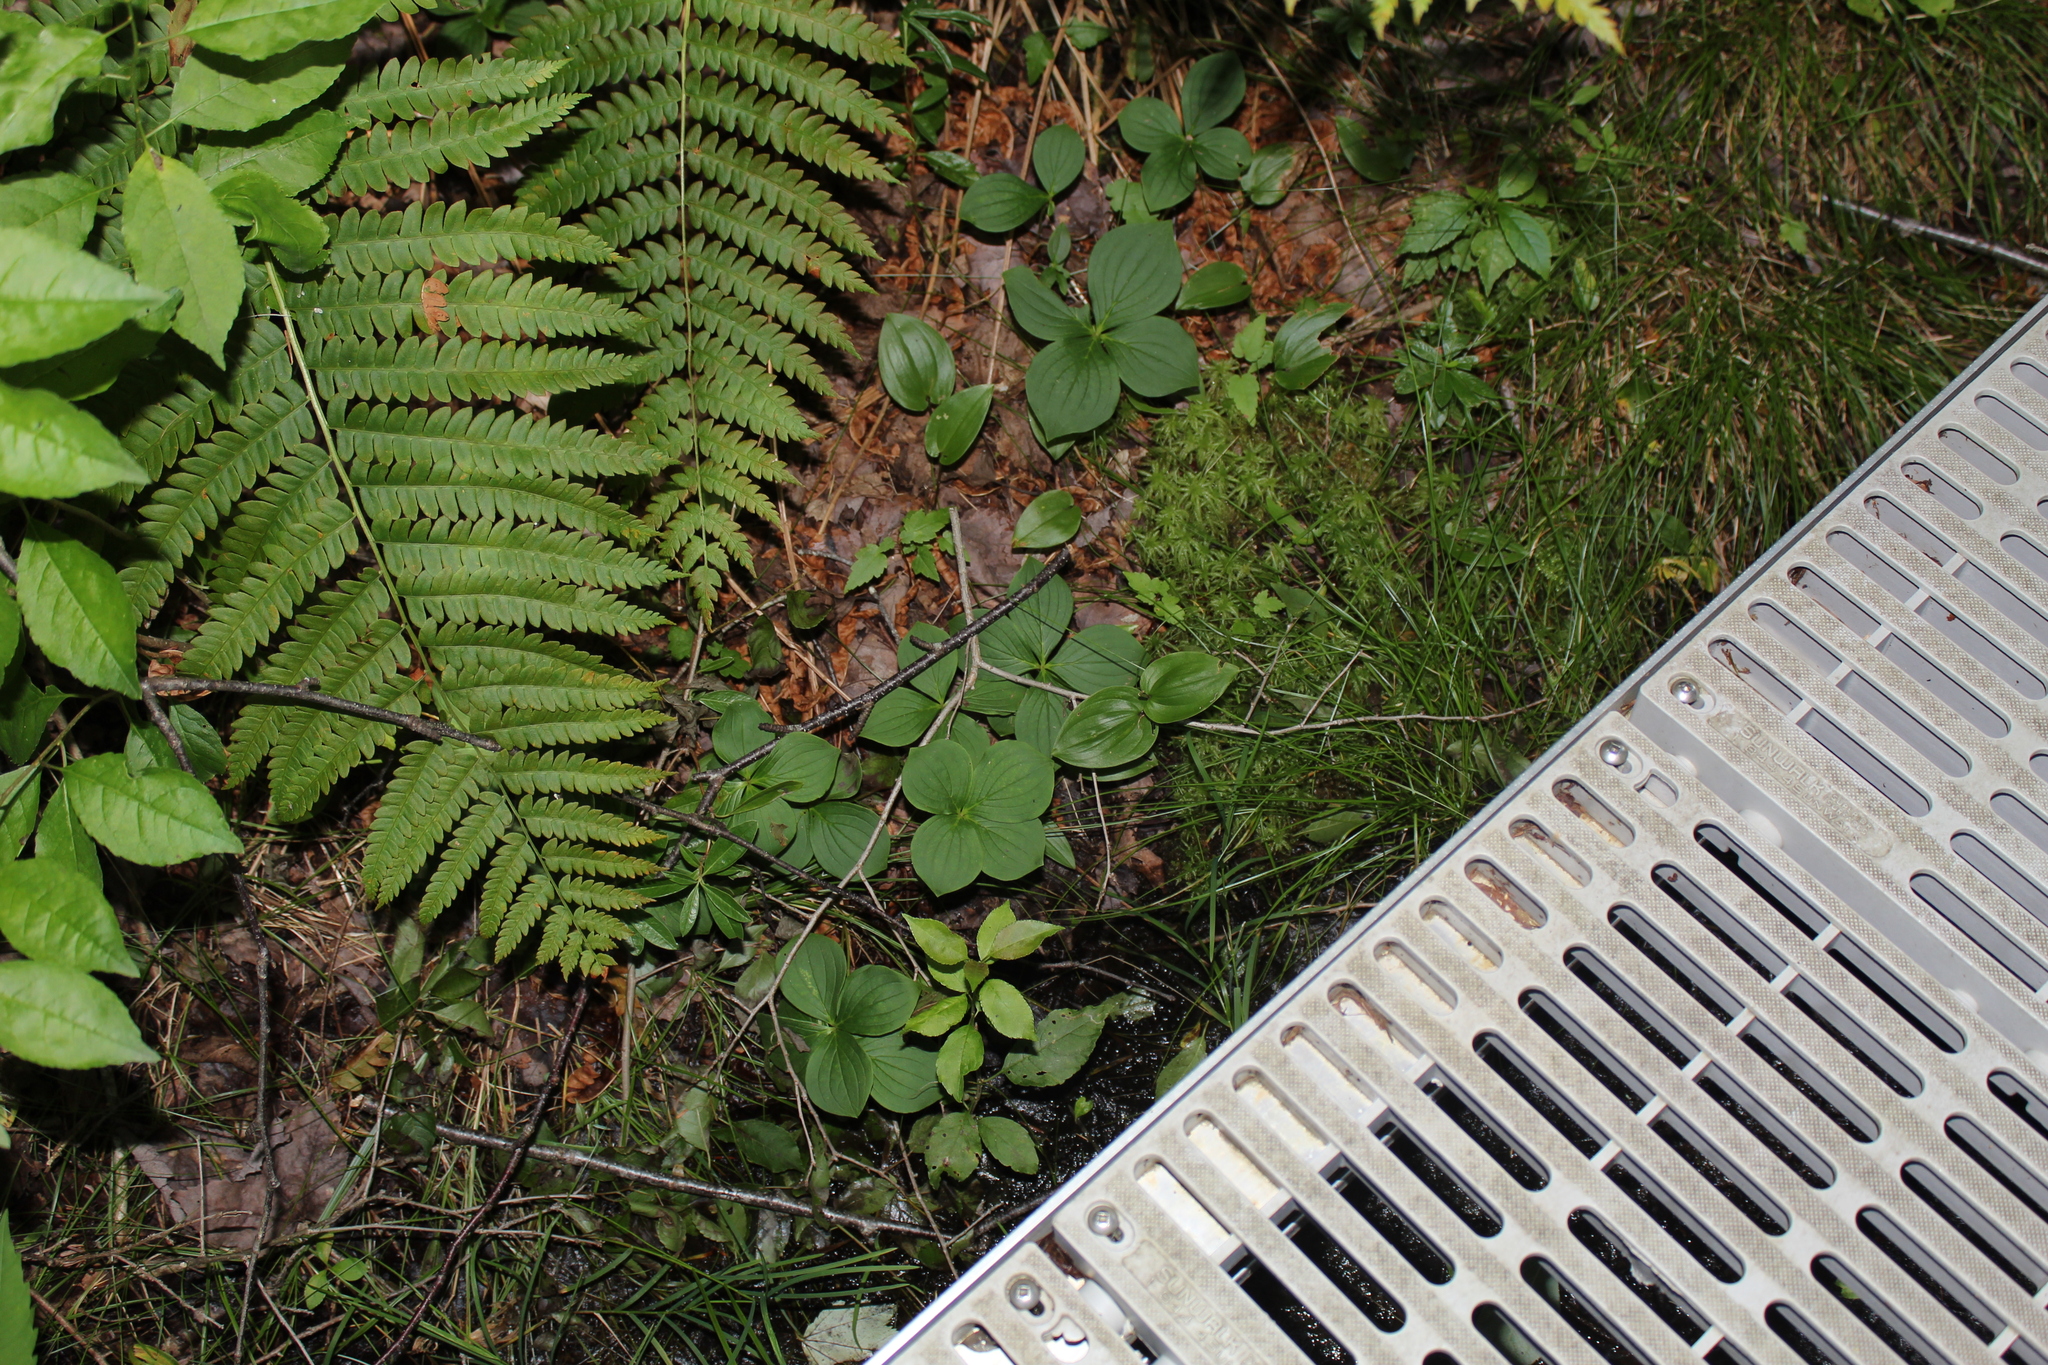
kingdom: Plantae
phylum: Tracheophyta
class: Magnoliopsida
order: Cornales
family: Cornaceae
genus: Cornus
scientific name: Cornus canadensis
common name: Creeping dogwood
